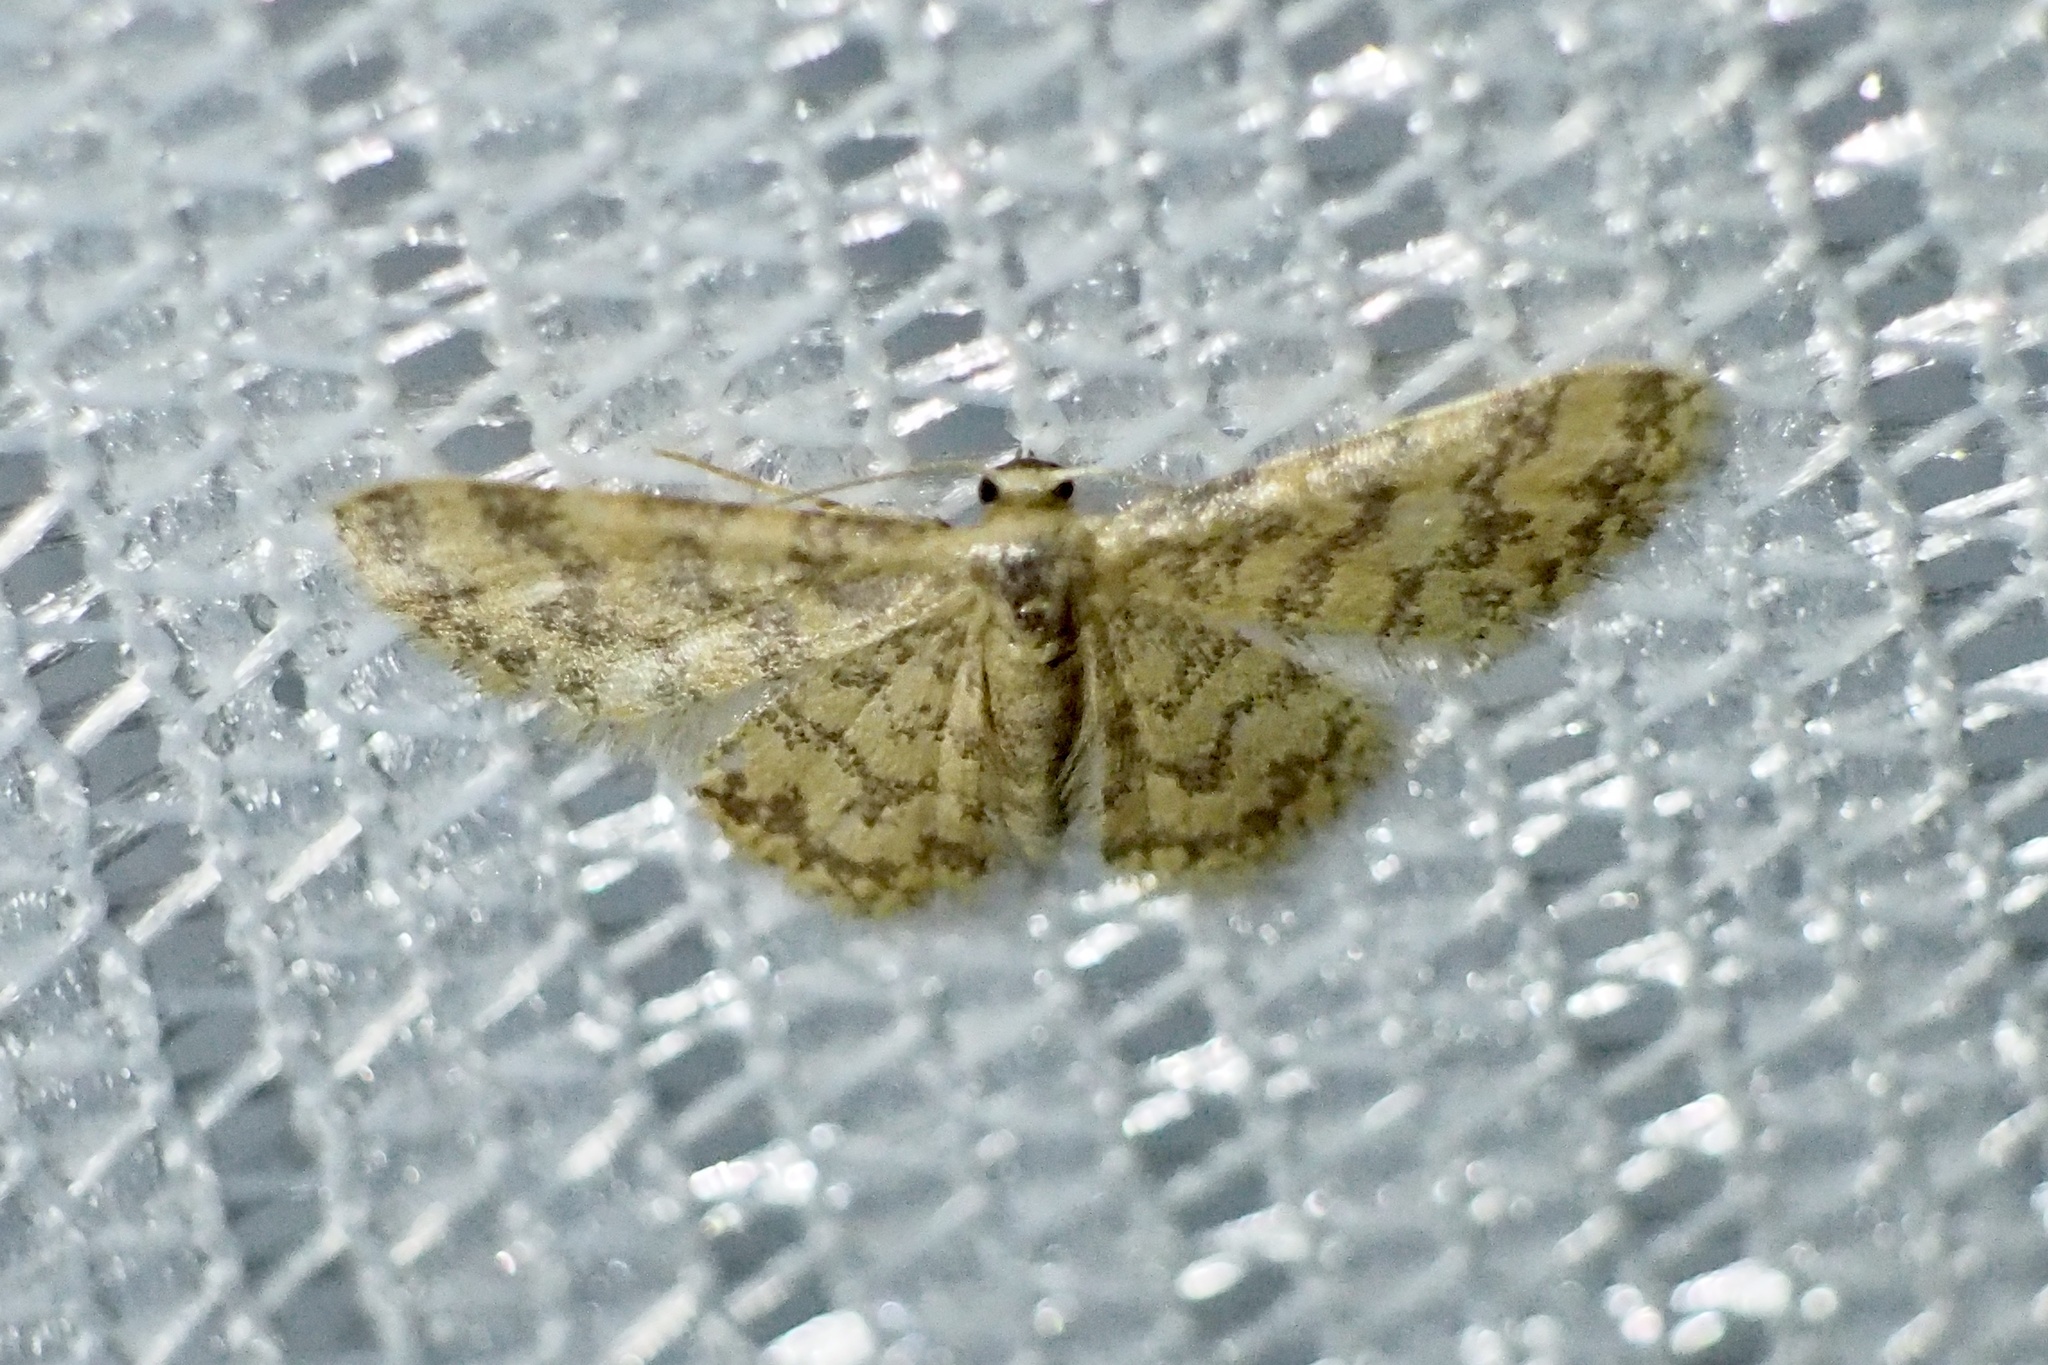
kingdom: Animalia
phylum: Arthropoda
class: Insecta
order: Lepidoptera
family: Geometridae
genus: Idaea
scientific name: Idaea auricruda
